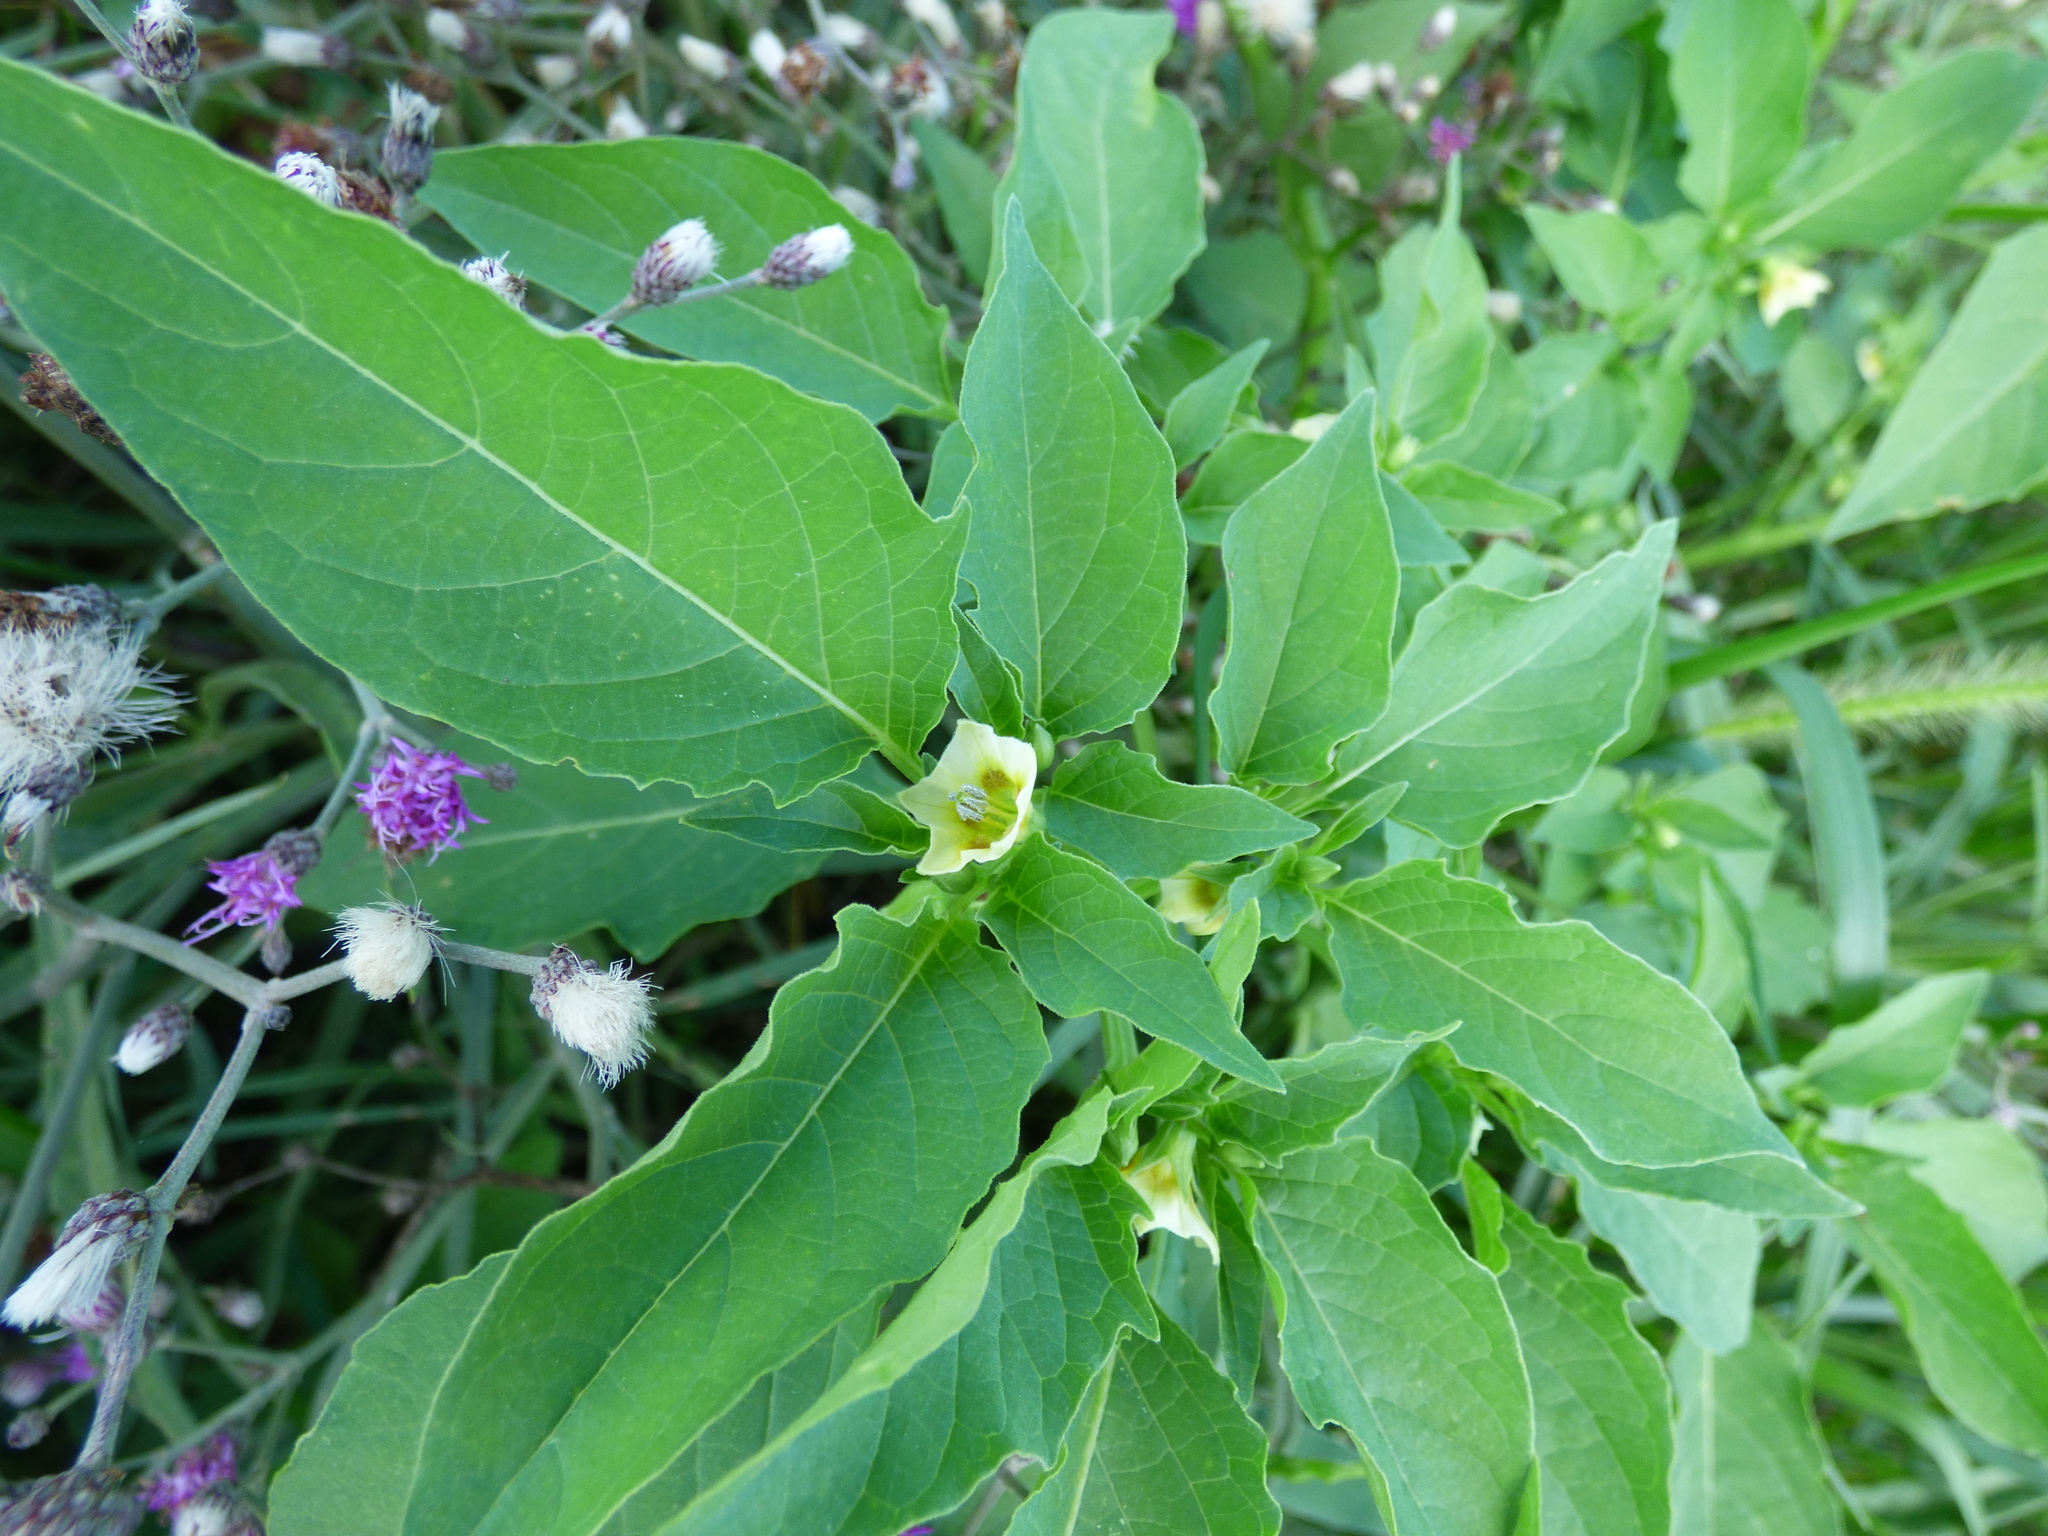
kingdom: Plantae
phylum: Tracheophyta
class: Magnoliopsida
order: Solanales
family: Solanaceae
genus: Physalis
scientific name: Physalis angulata
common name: Angular winter-cherry
